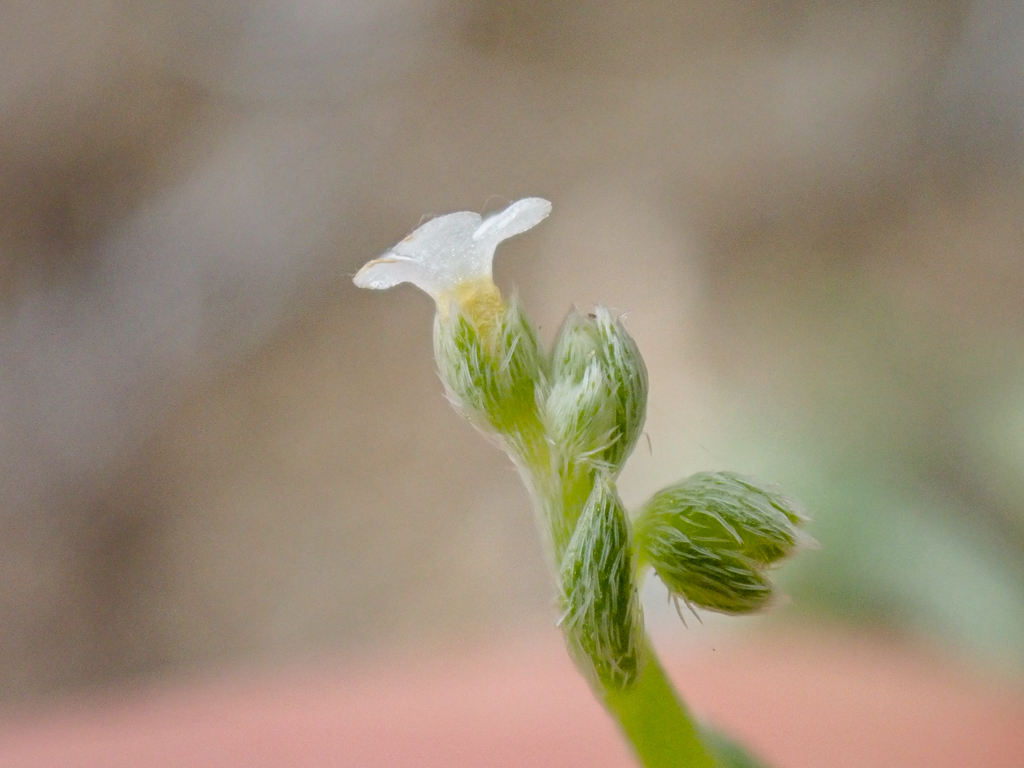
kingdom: Plantae
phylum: Tracheophyta
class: Magnoliopsida
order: Boraginales
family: Boraginaceae
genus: Pectocarya
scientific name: Pectocarya penicillata
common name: Short-leaved combseed
